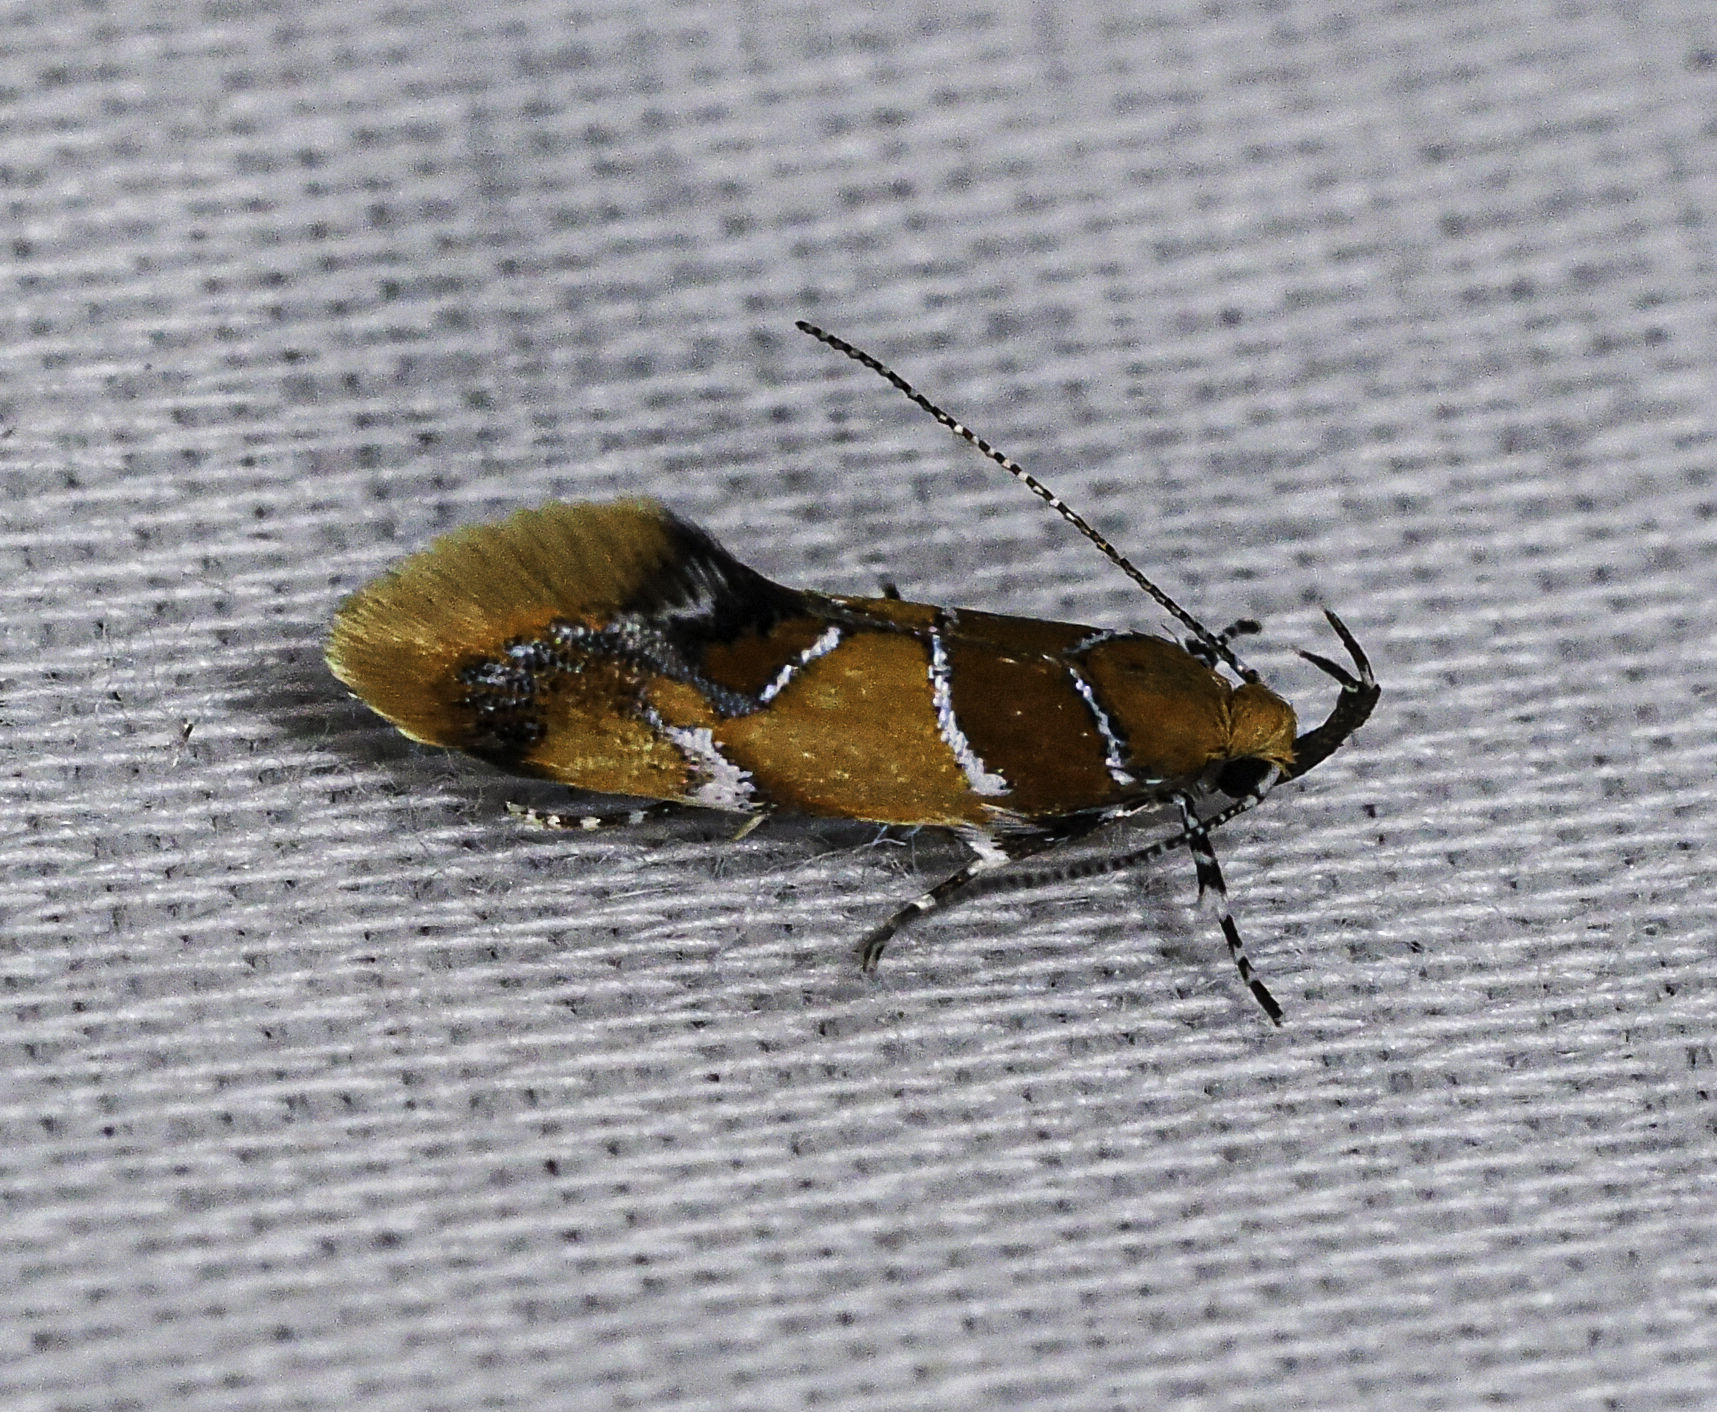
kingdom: Animalia
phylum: Arthropoda
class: Insecta
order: Lepidoptera
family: Oecophoridae
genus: Callima
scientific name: Callima argenticinctella
